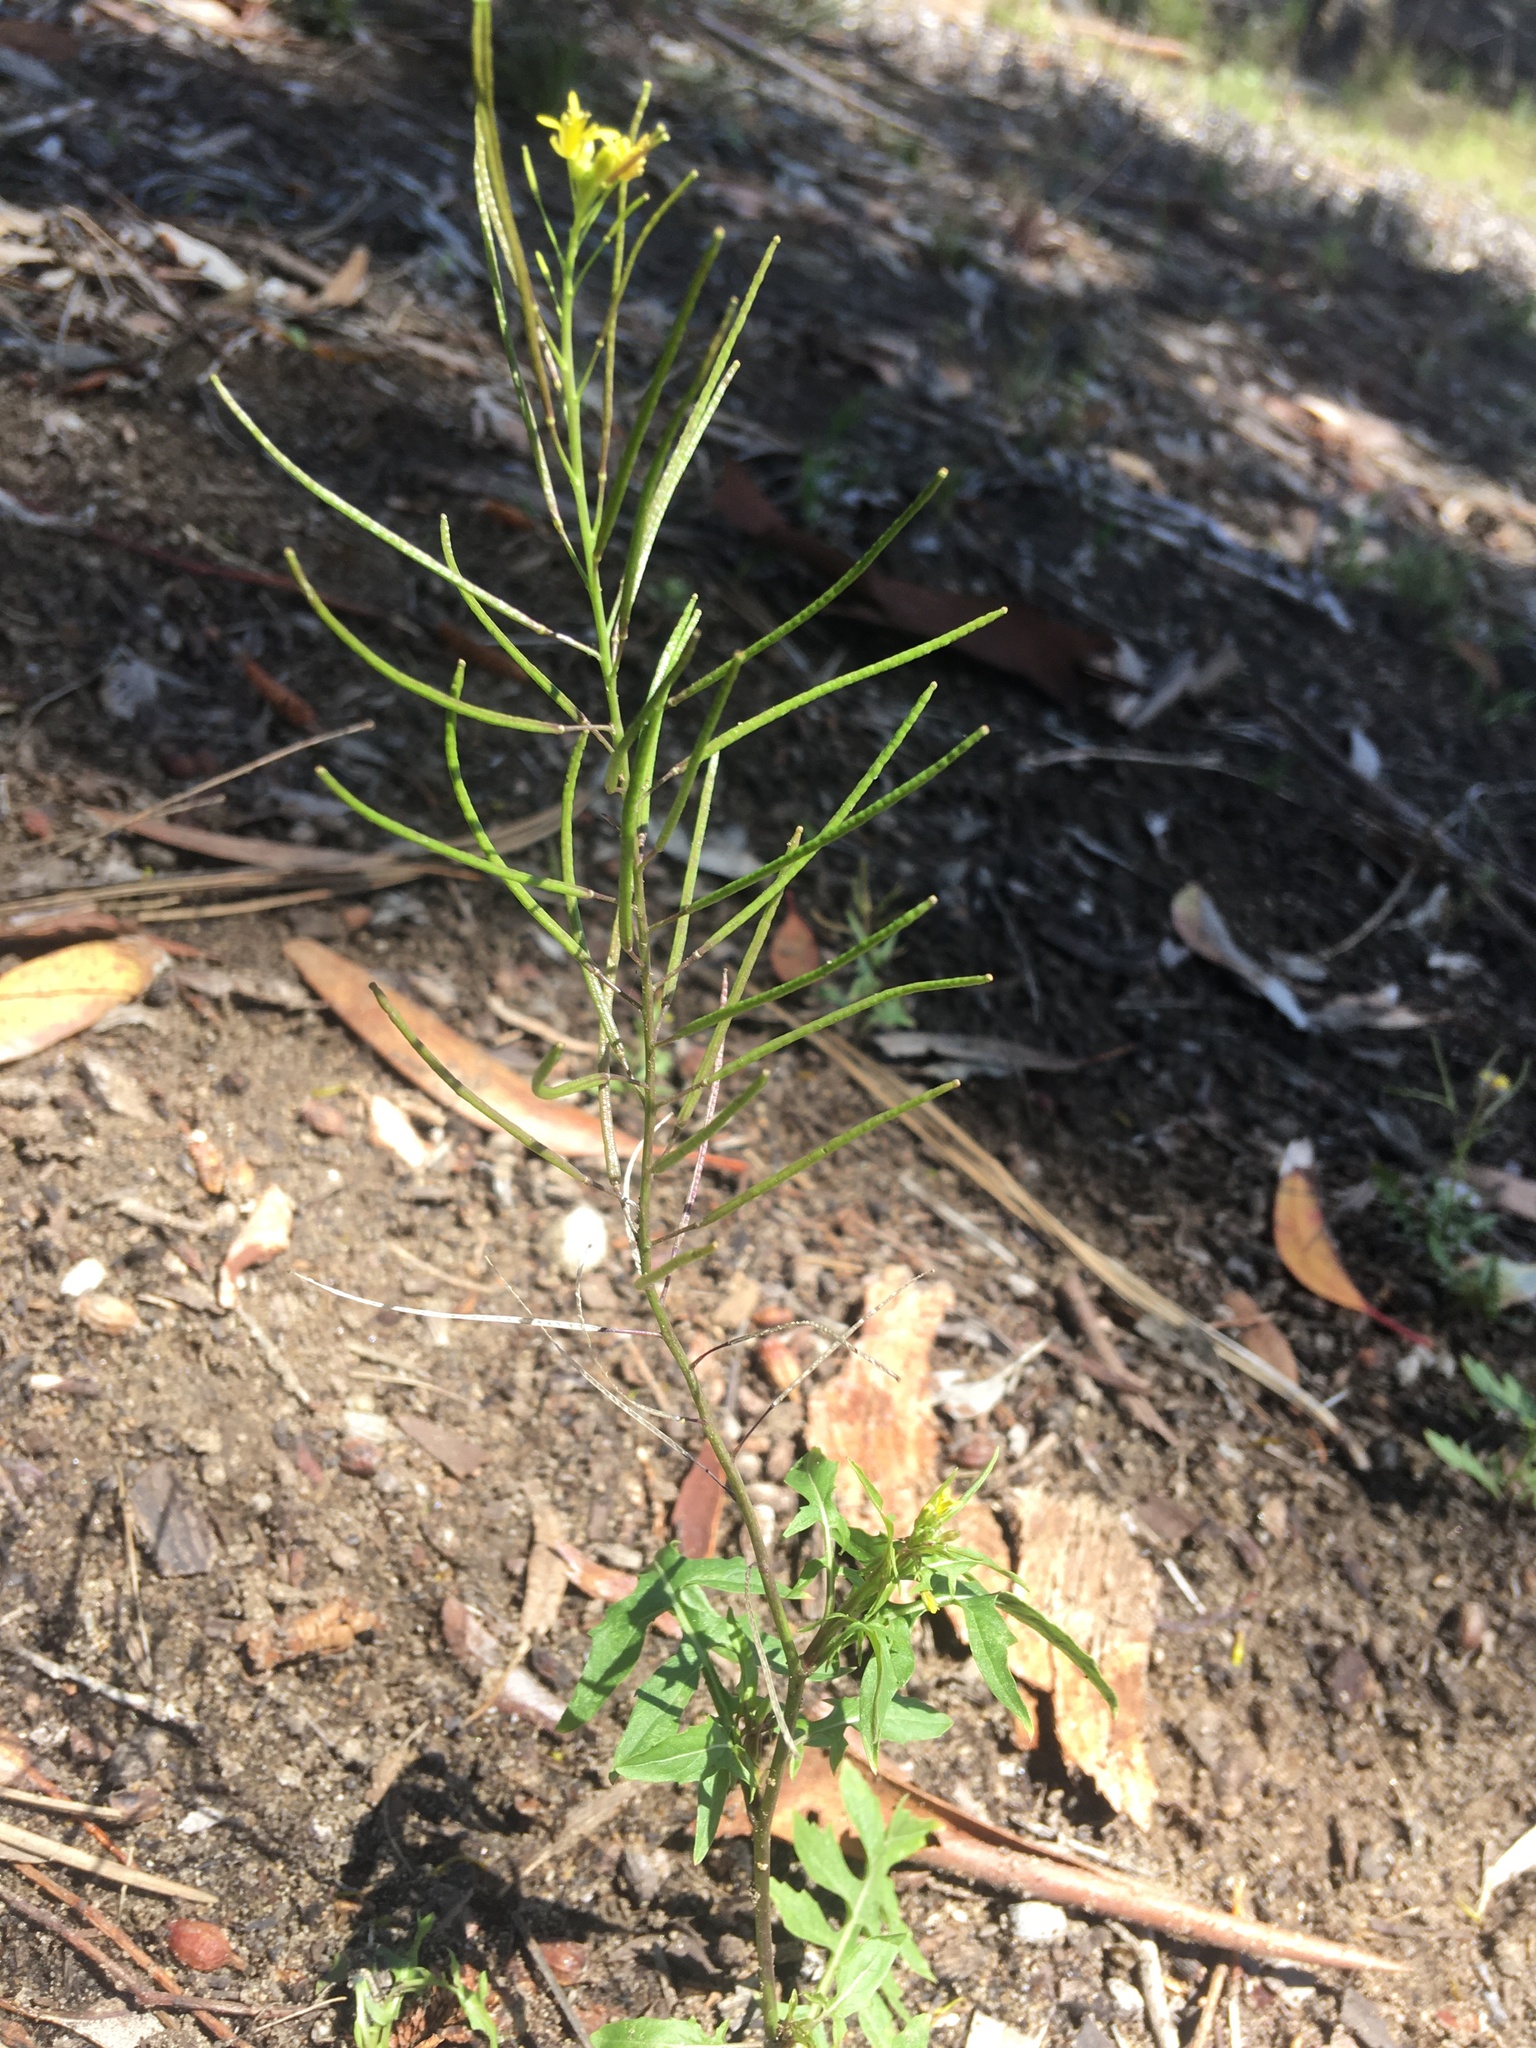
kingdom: Plantae
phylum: Tracheophyta
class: Magnoliopsida
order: Brassicales
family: Brassicaceae
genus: Sisymbrium
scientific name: Sisymbrium irio
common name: London rocket
